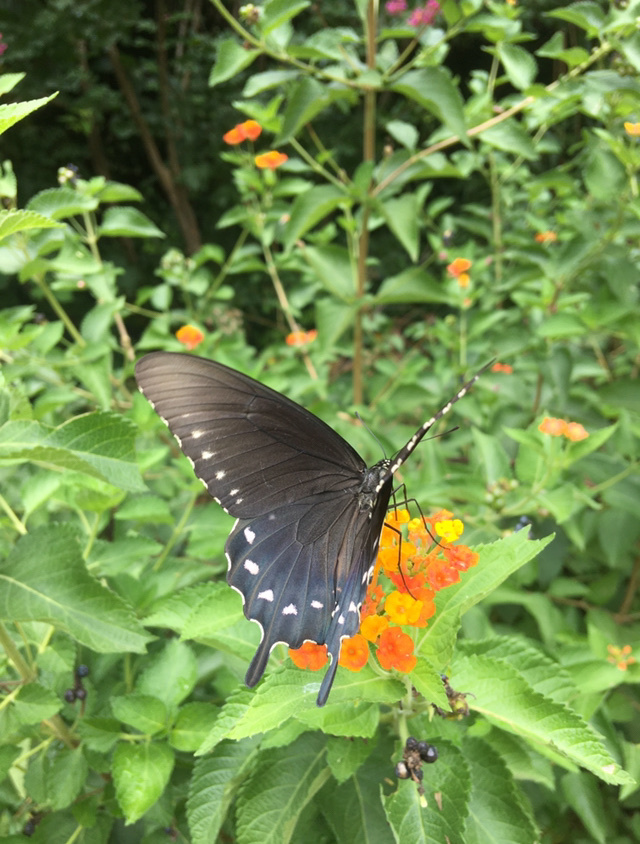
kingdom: Animalia
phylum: Arthropoda
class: Insecta
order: Lepidoptera
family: Papilionidae
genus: Battus
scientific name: Battus philenor
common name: Pipevine swallowtail
